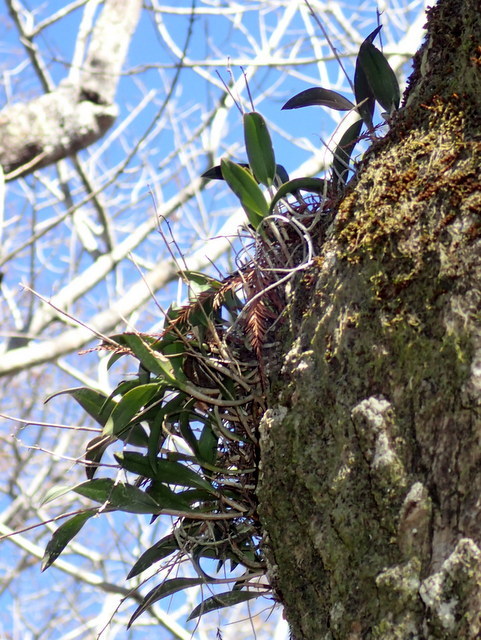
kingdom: Plantae
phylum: Tracheophyta
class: Liliopsida
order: Asparagales
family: Orchidaceae
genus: Epidendrum
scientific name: Epidendrum conopseum
